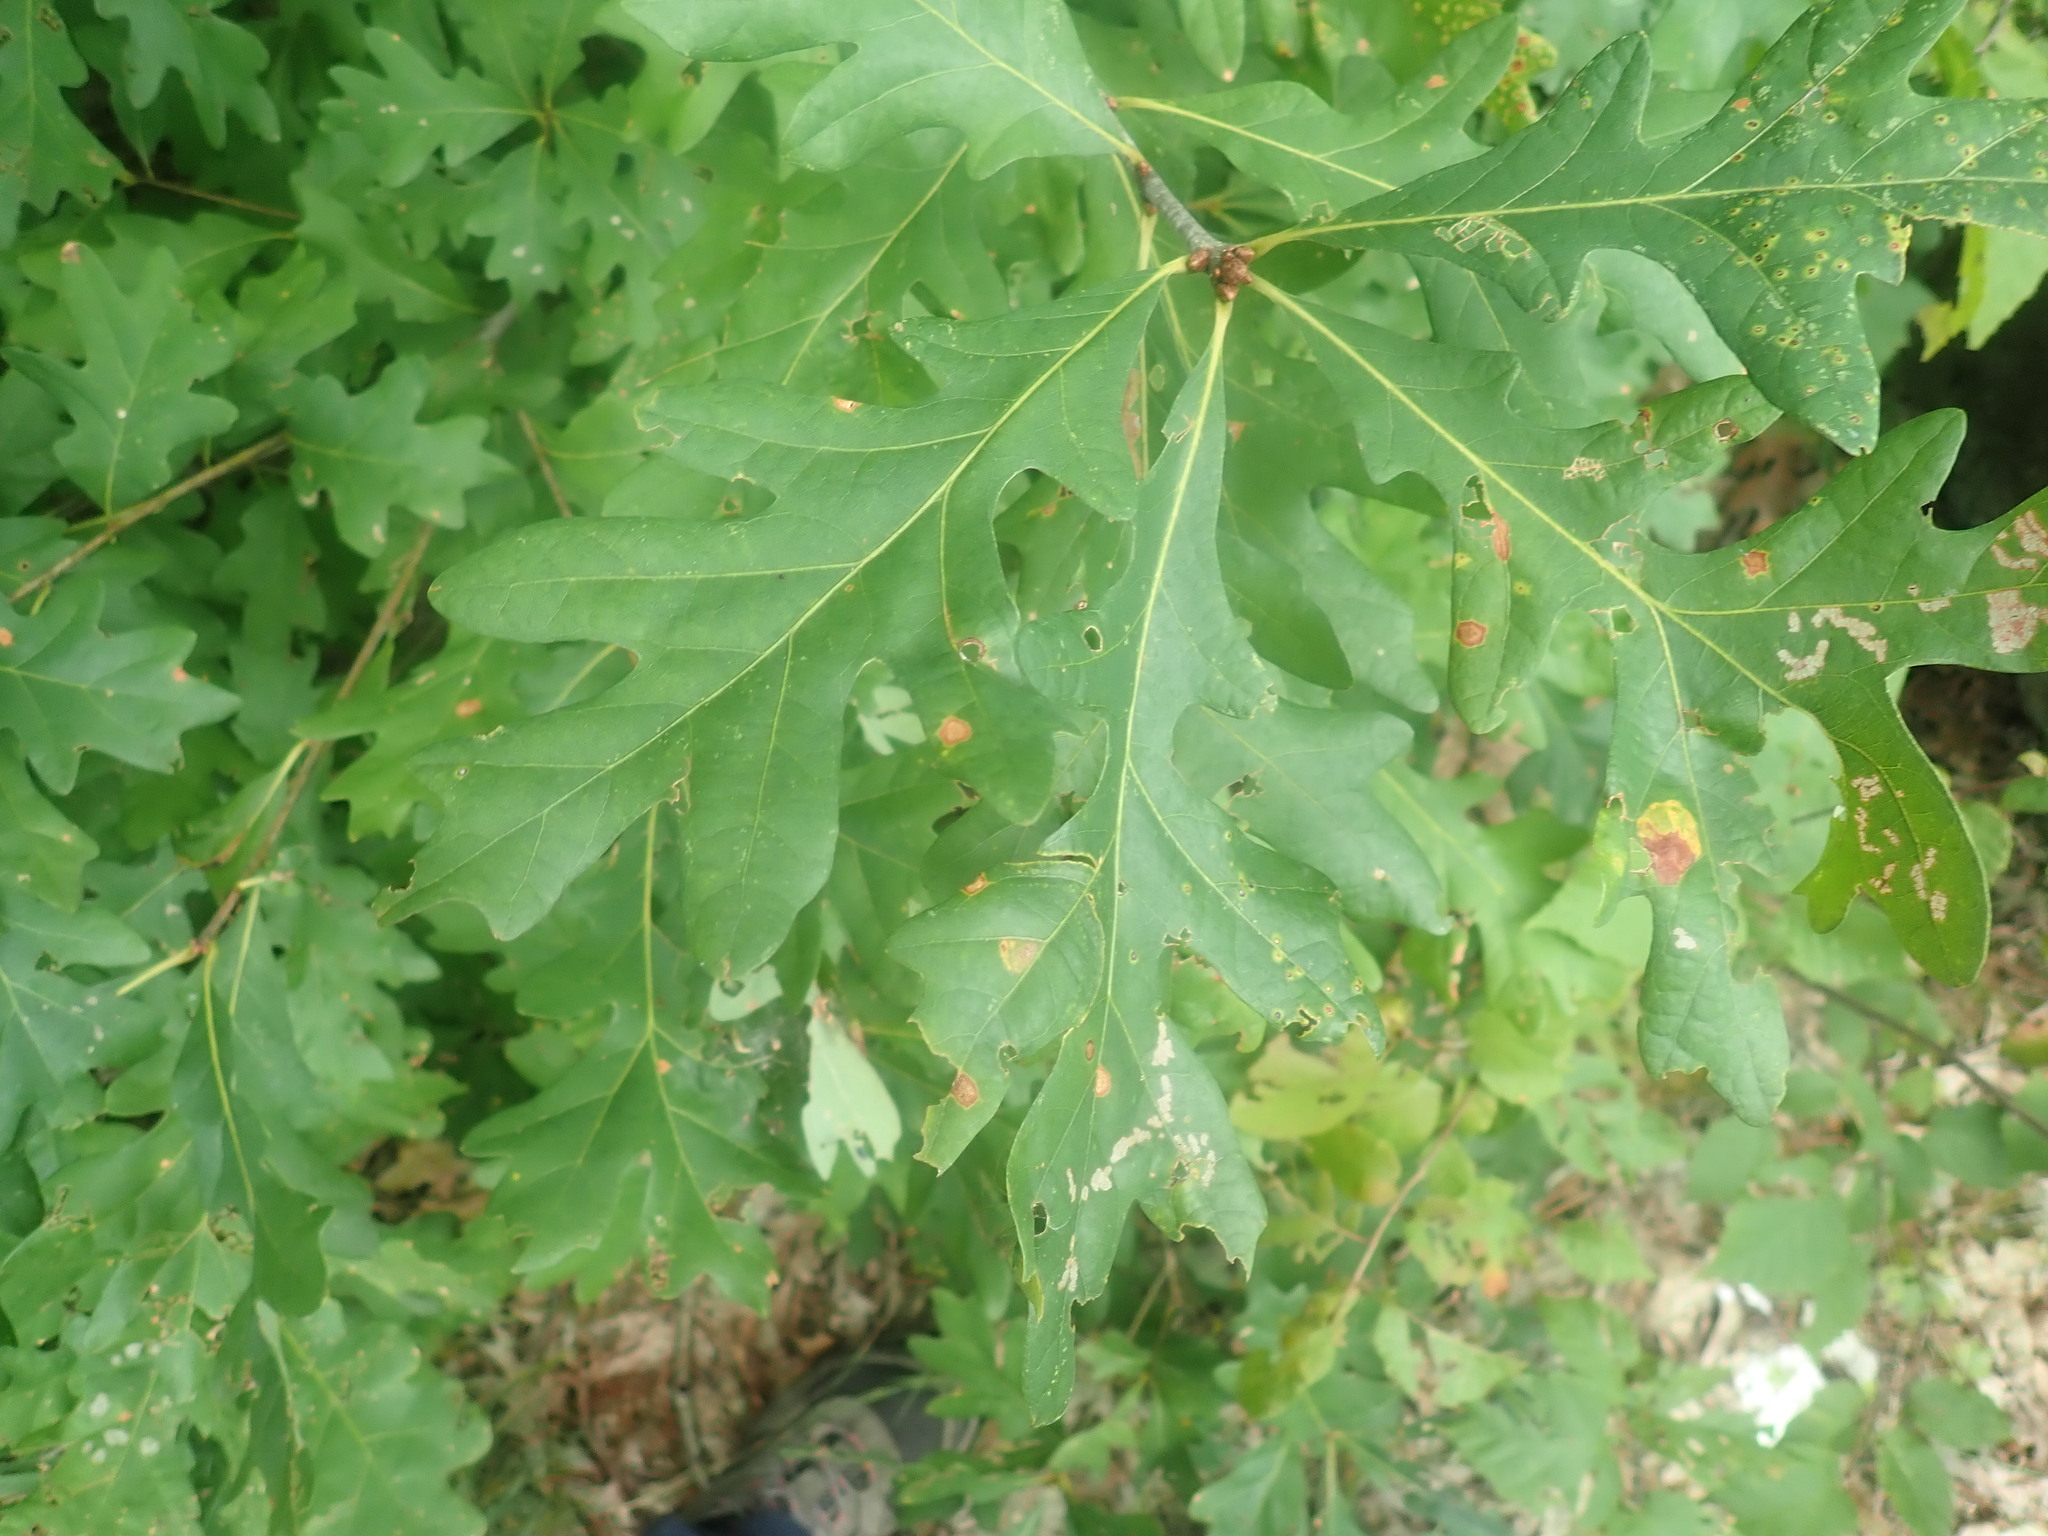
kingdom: Plantae
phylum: Tracheophyta
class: Magnoliopsida
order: Fagales
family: Fagaceae
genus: Quercus
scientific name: Quercus alba
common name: White oak
